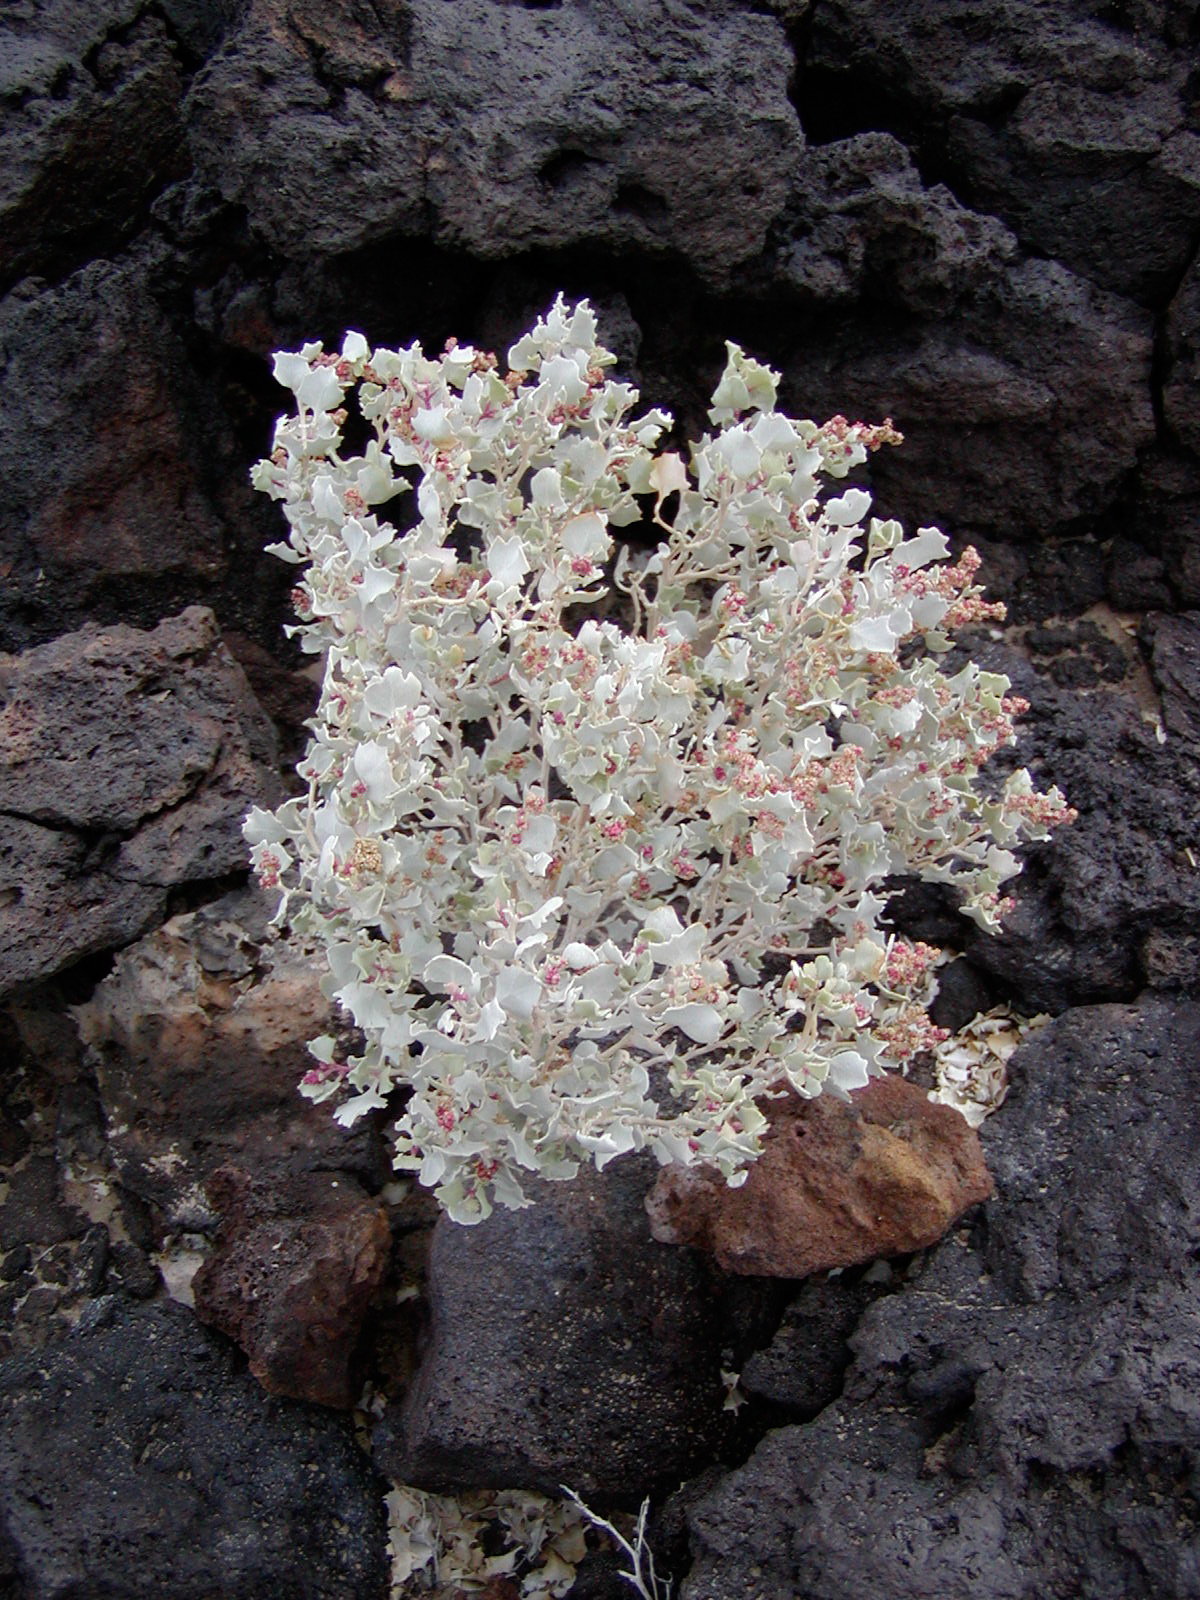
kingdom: Plantae
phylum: Tracheophyta
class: Magnoliopsida
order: Caryophyllales
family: Amaranthaceae
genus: Atriplex
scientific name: Atriplex hymenelytra
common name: Desert-holly
